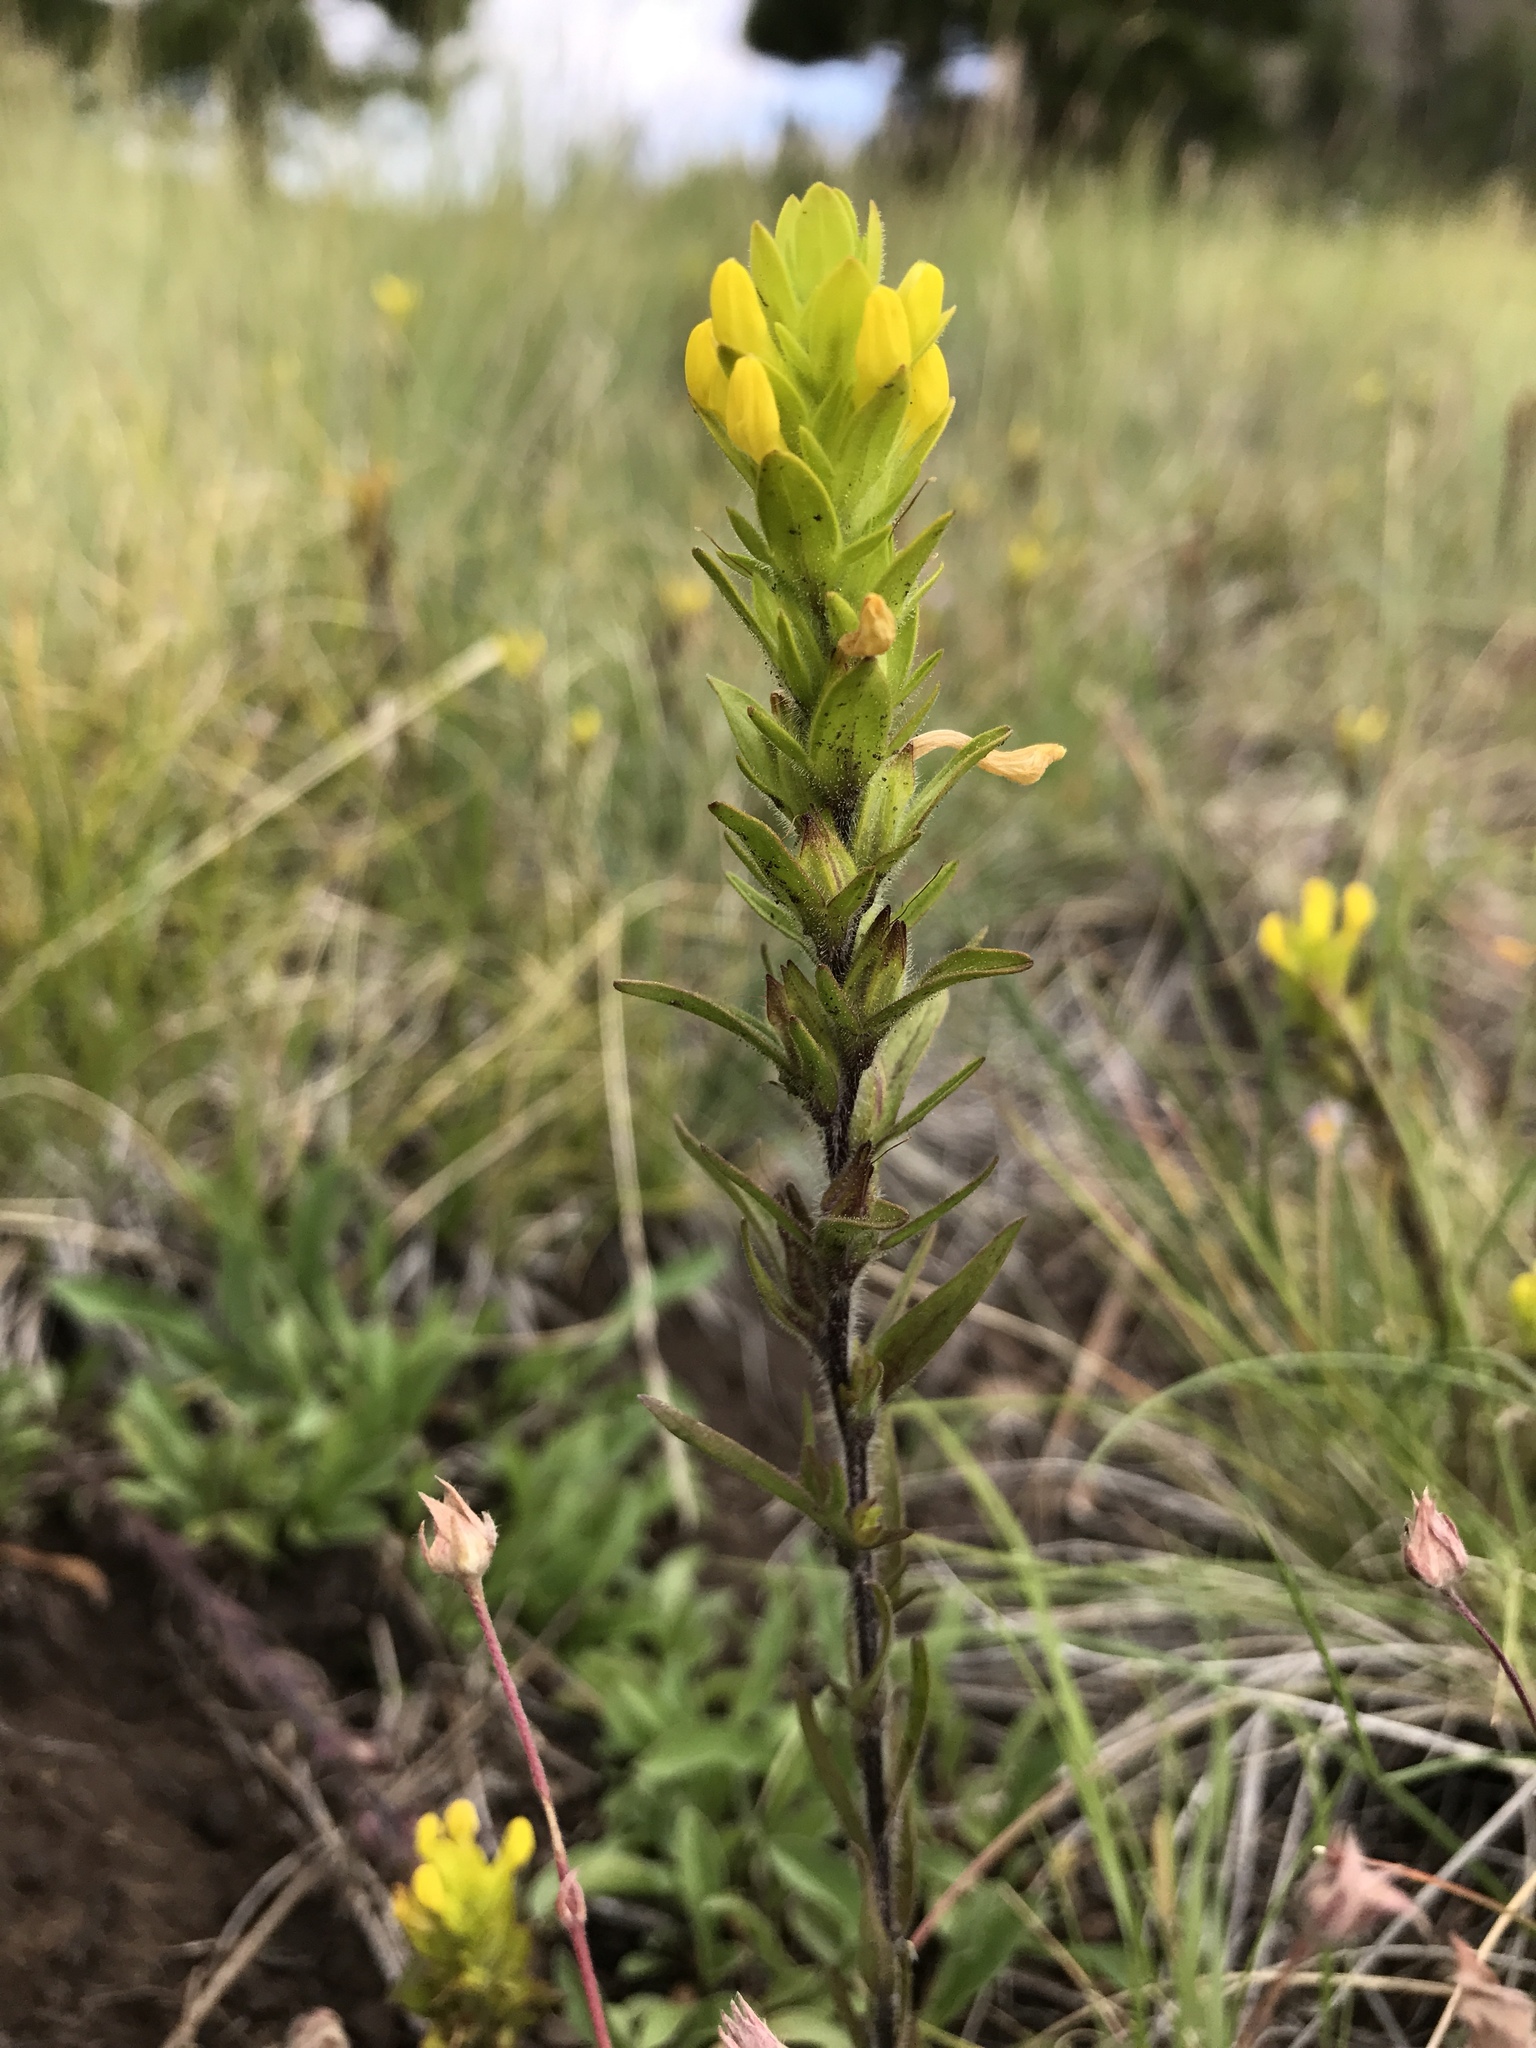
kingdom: Plantae
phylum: Tracheophyta
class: Magnoliopsida
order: Lamiales
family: Orobanchaceae
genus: Orthocarpus
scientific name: Orthocarpus luteus
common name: Golden-tongue owl's-clover
